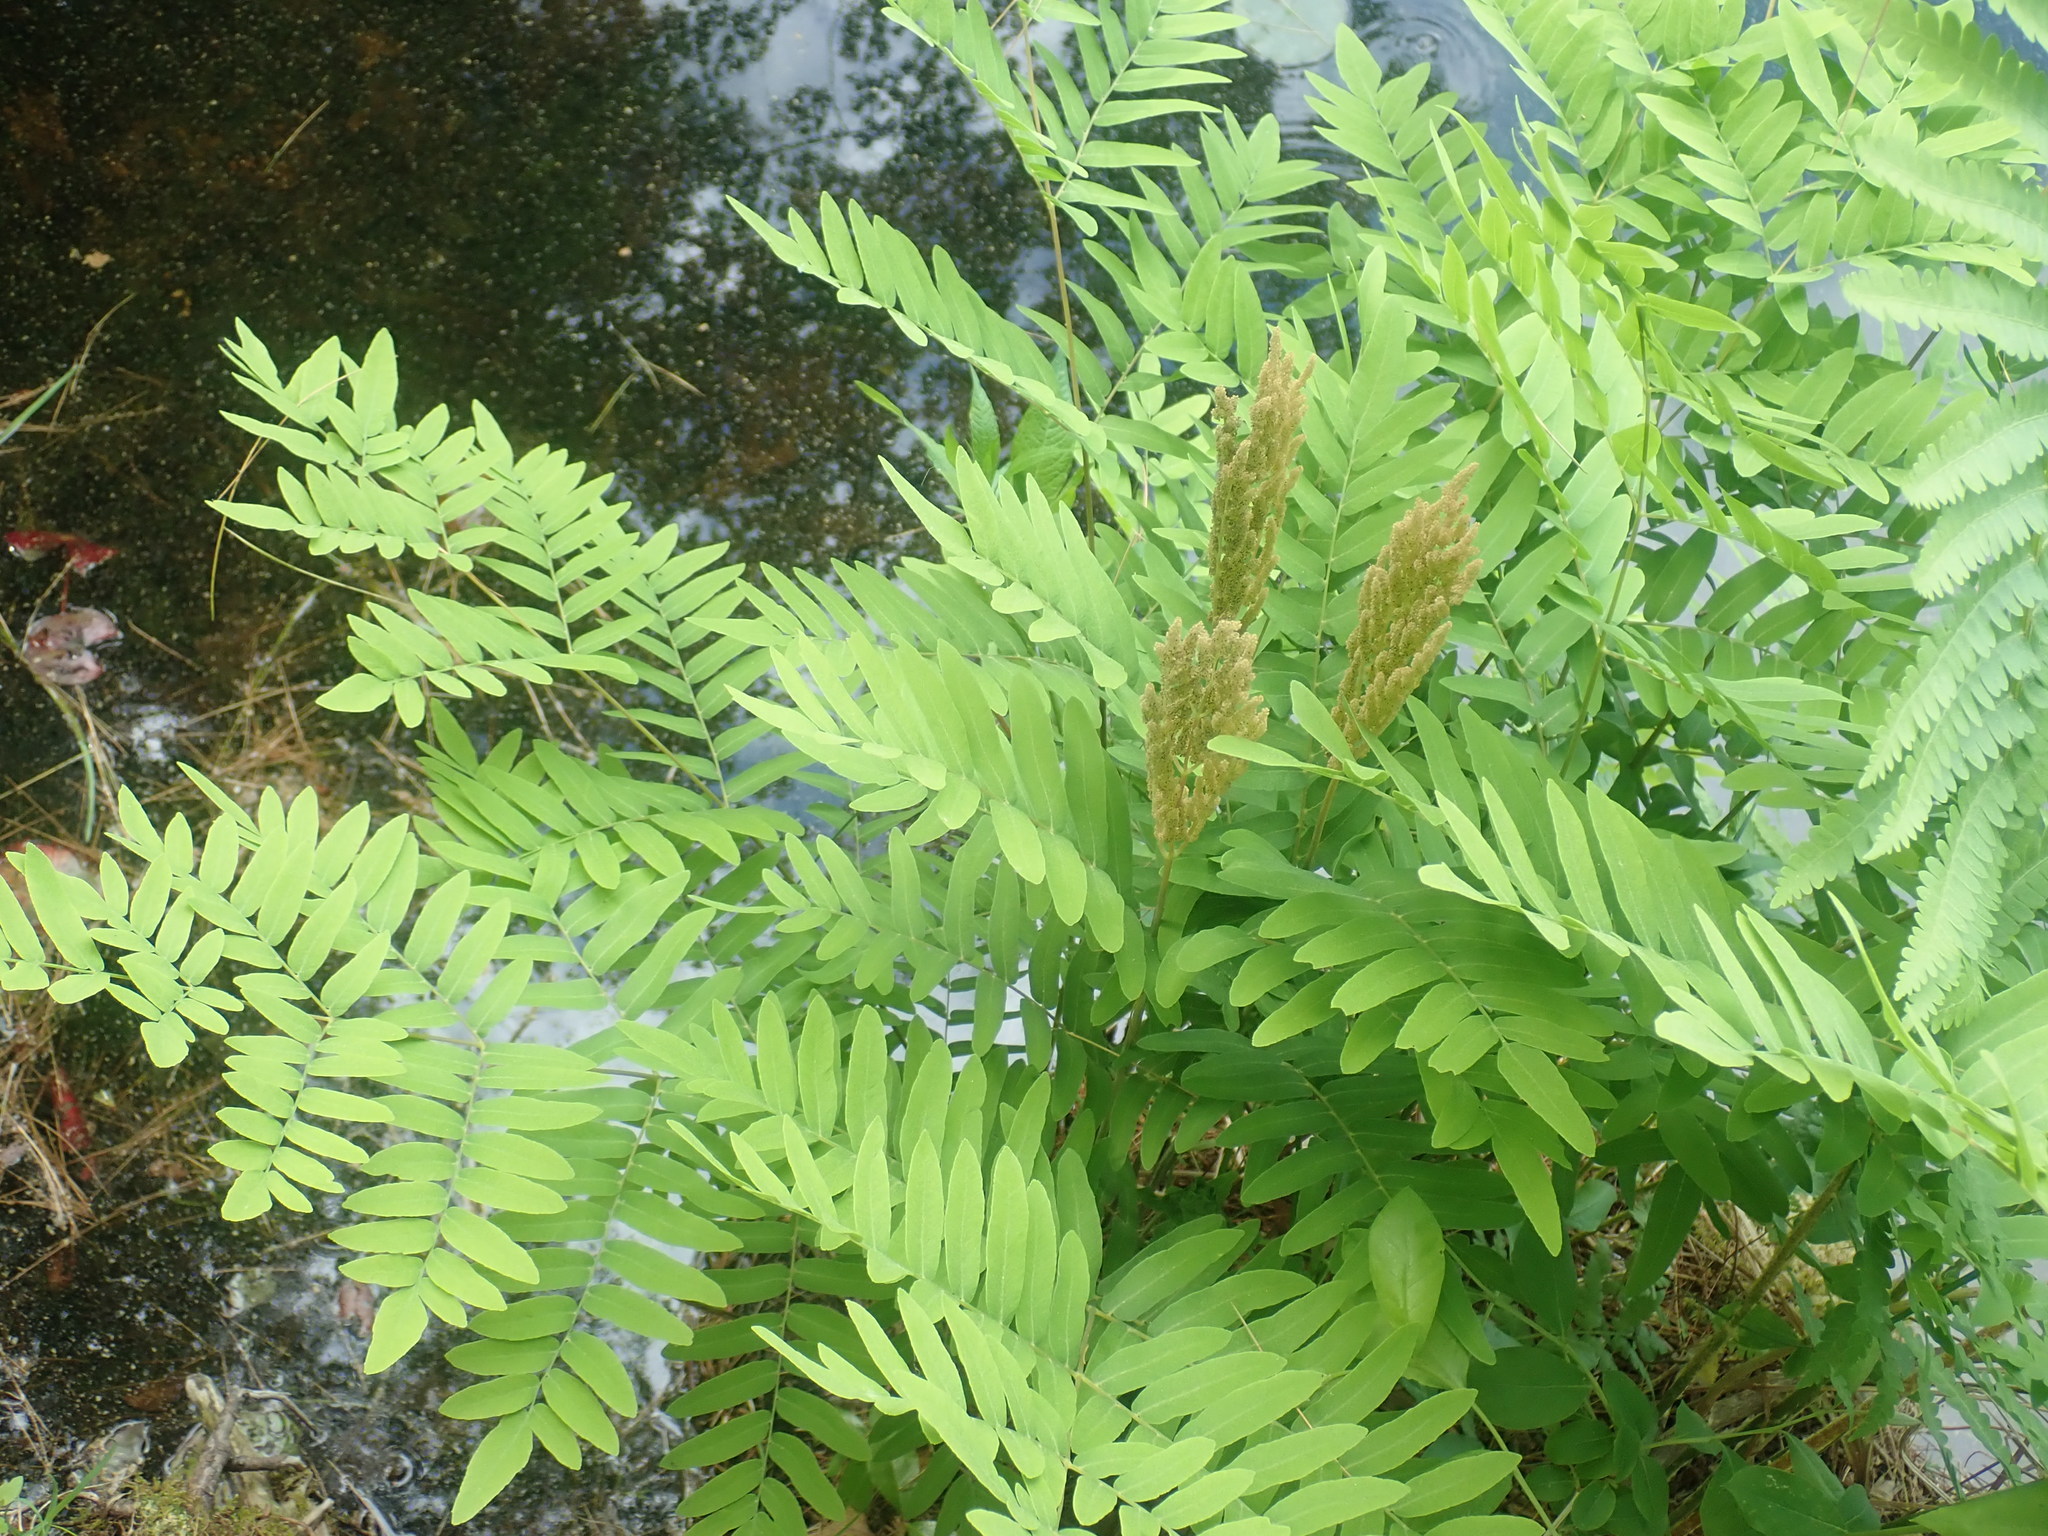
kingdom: Plantae
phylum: Tracheophyta
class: Polypodiopsida
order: Osmundales
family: Osmundaceae
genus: Osmunda
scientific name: Osmunda spectabilis
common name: American royal fern
